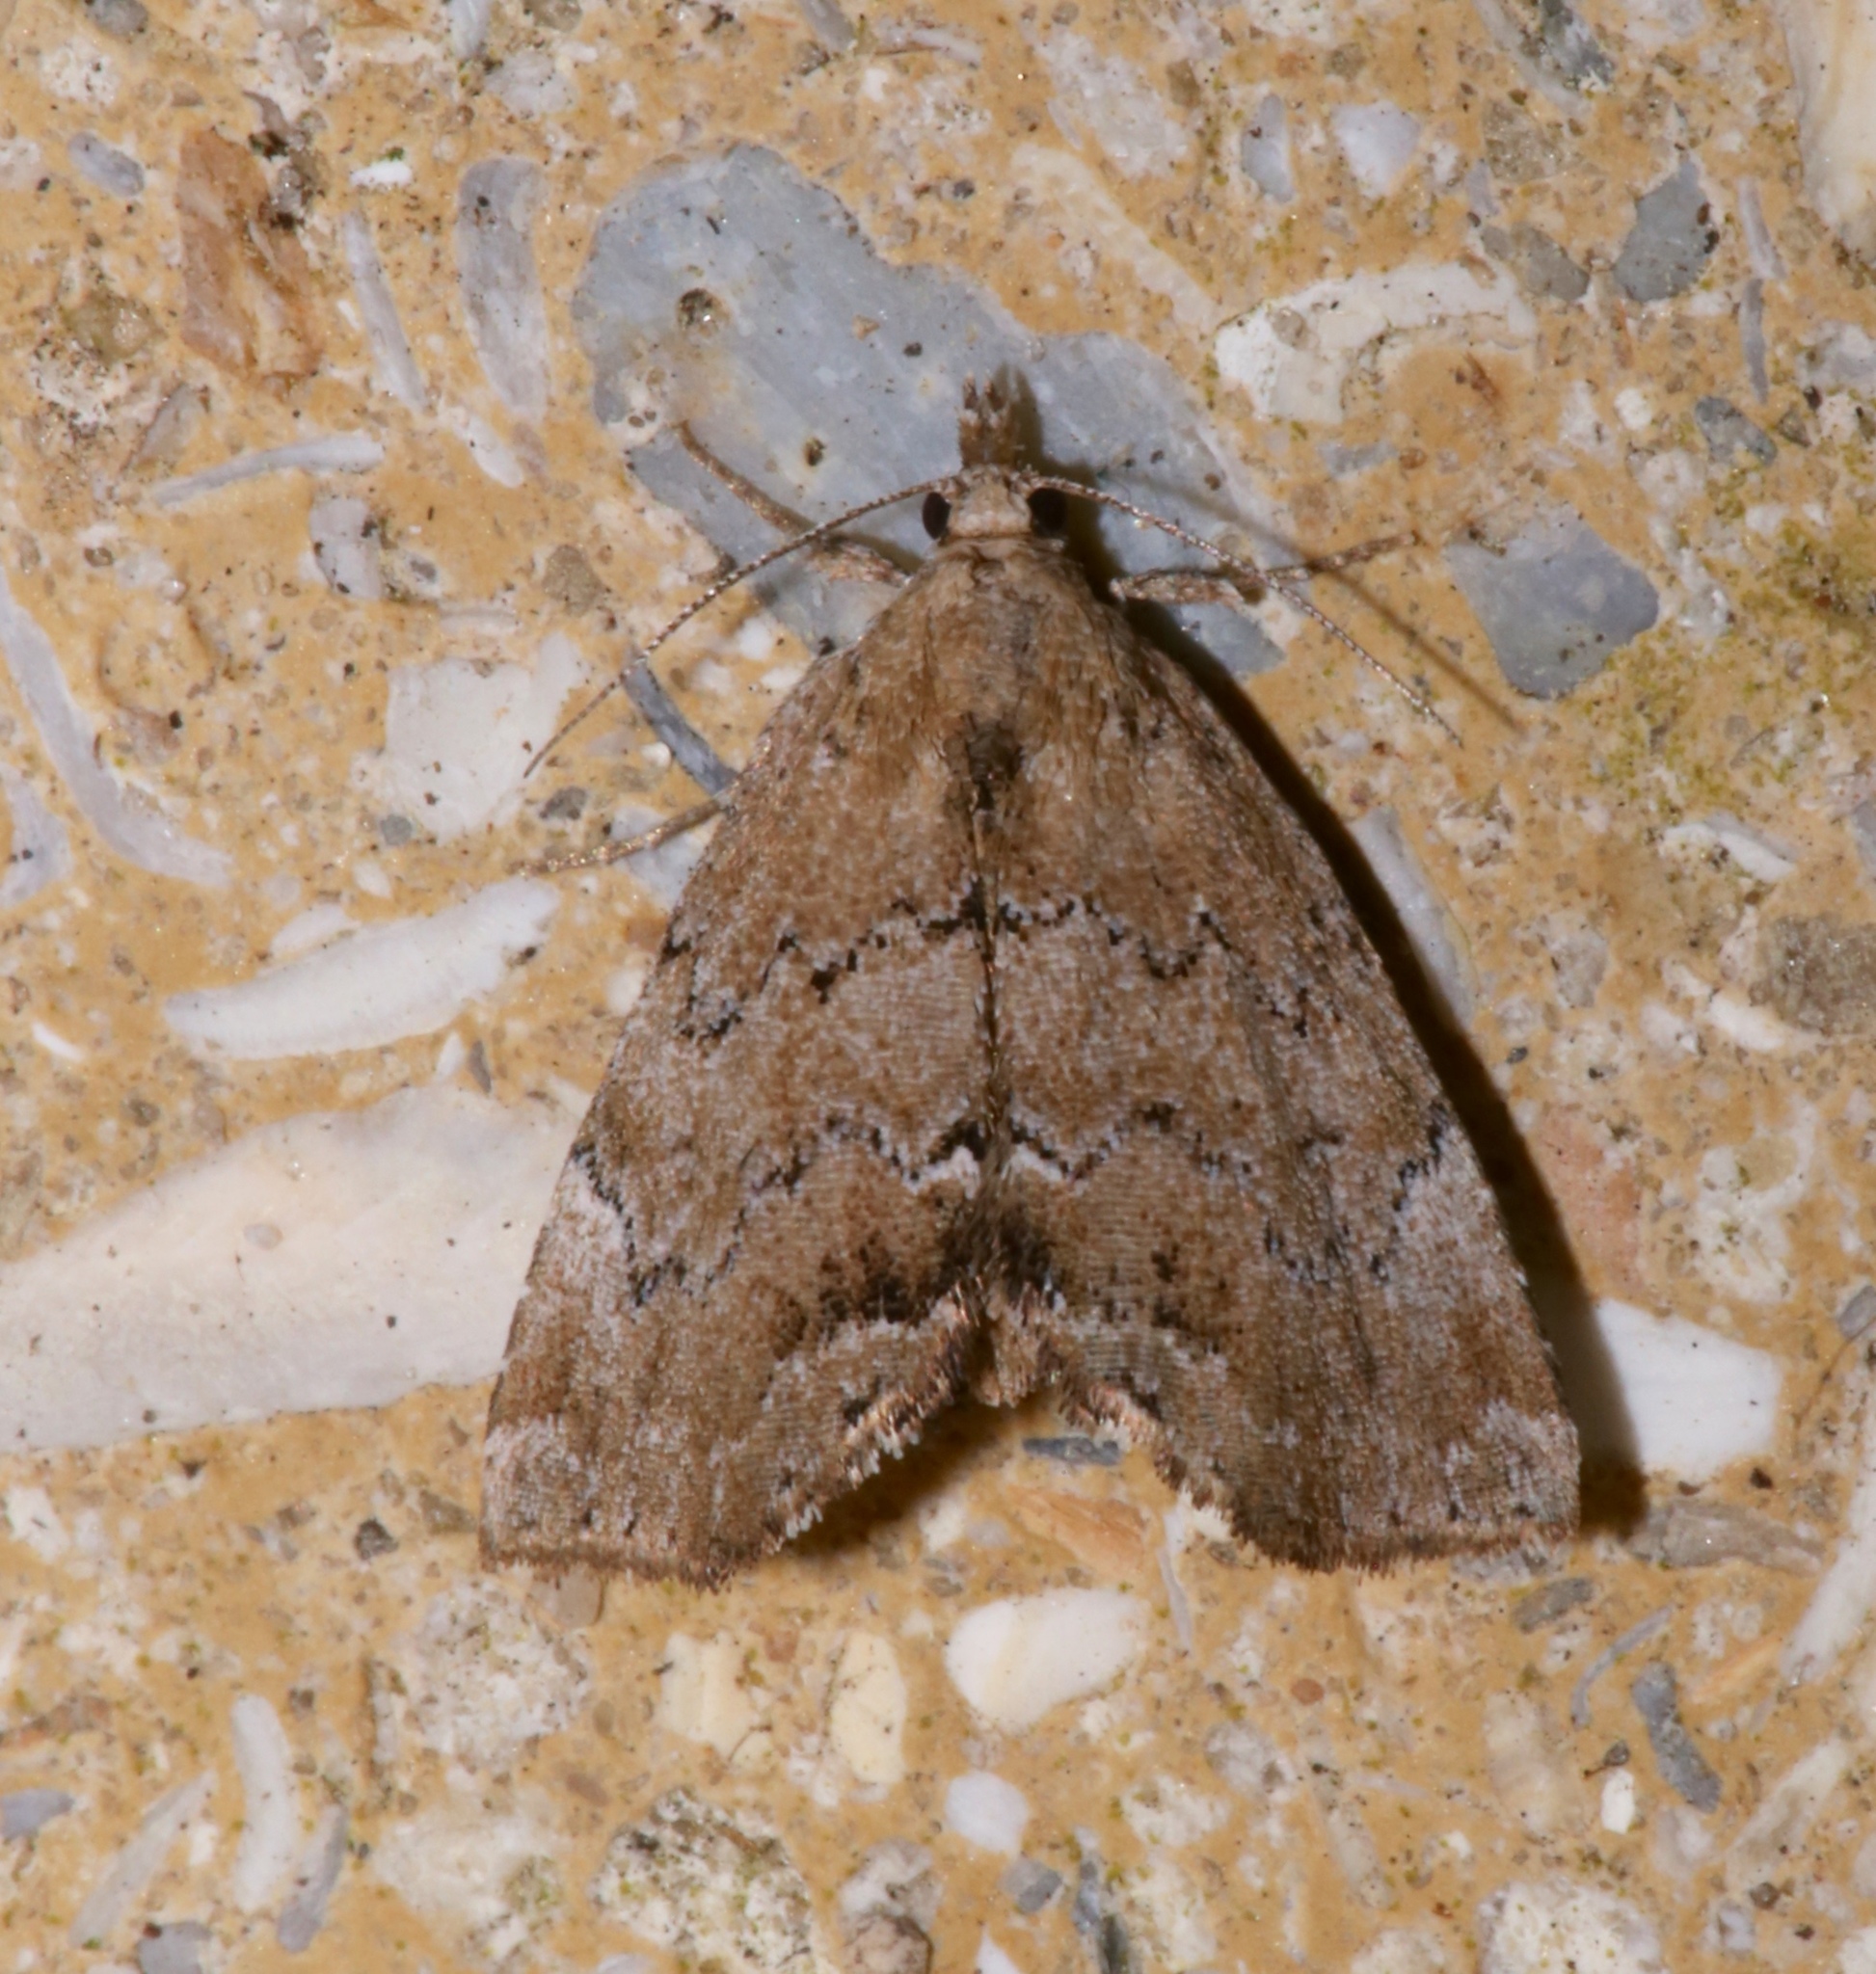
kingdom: Animalia
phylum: Arthropoda
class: Insecta
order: Lepidoptera
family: Erebidae
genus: Cutina
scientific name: Cutina aluticolor
